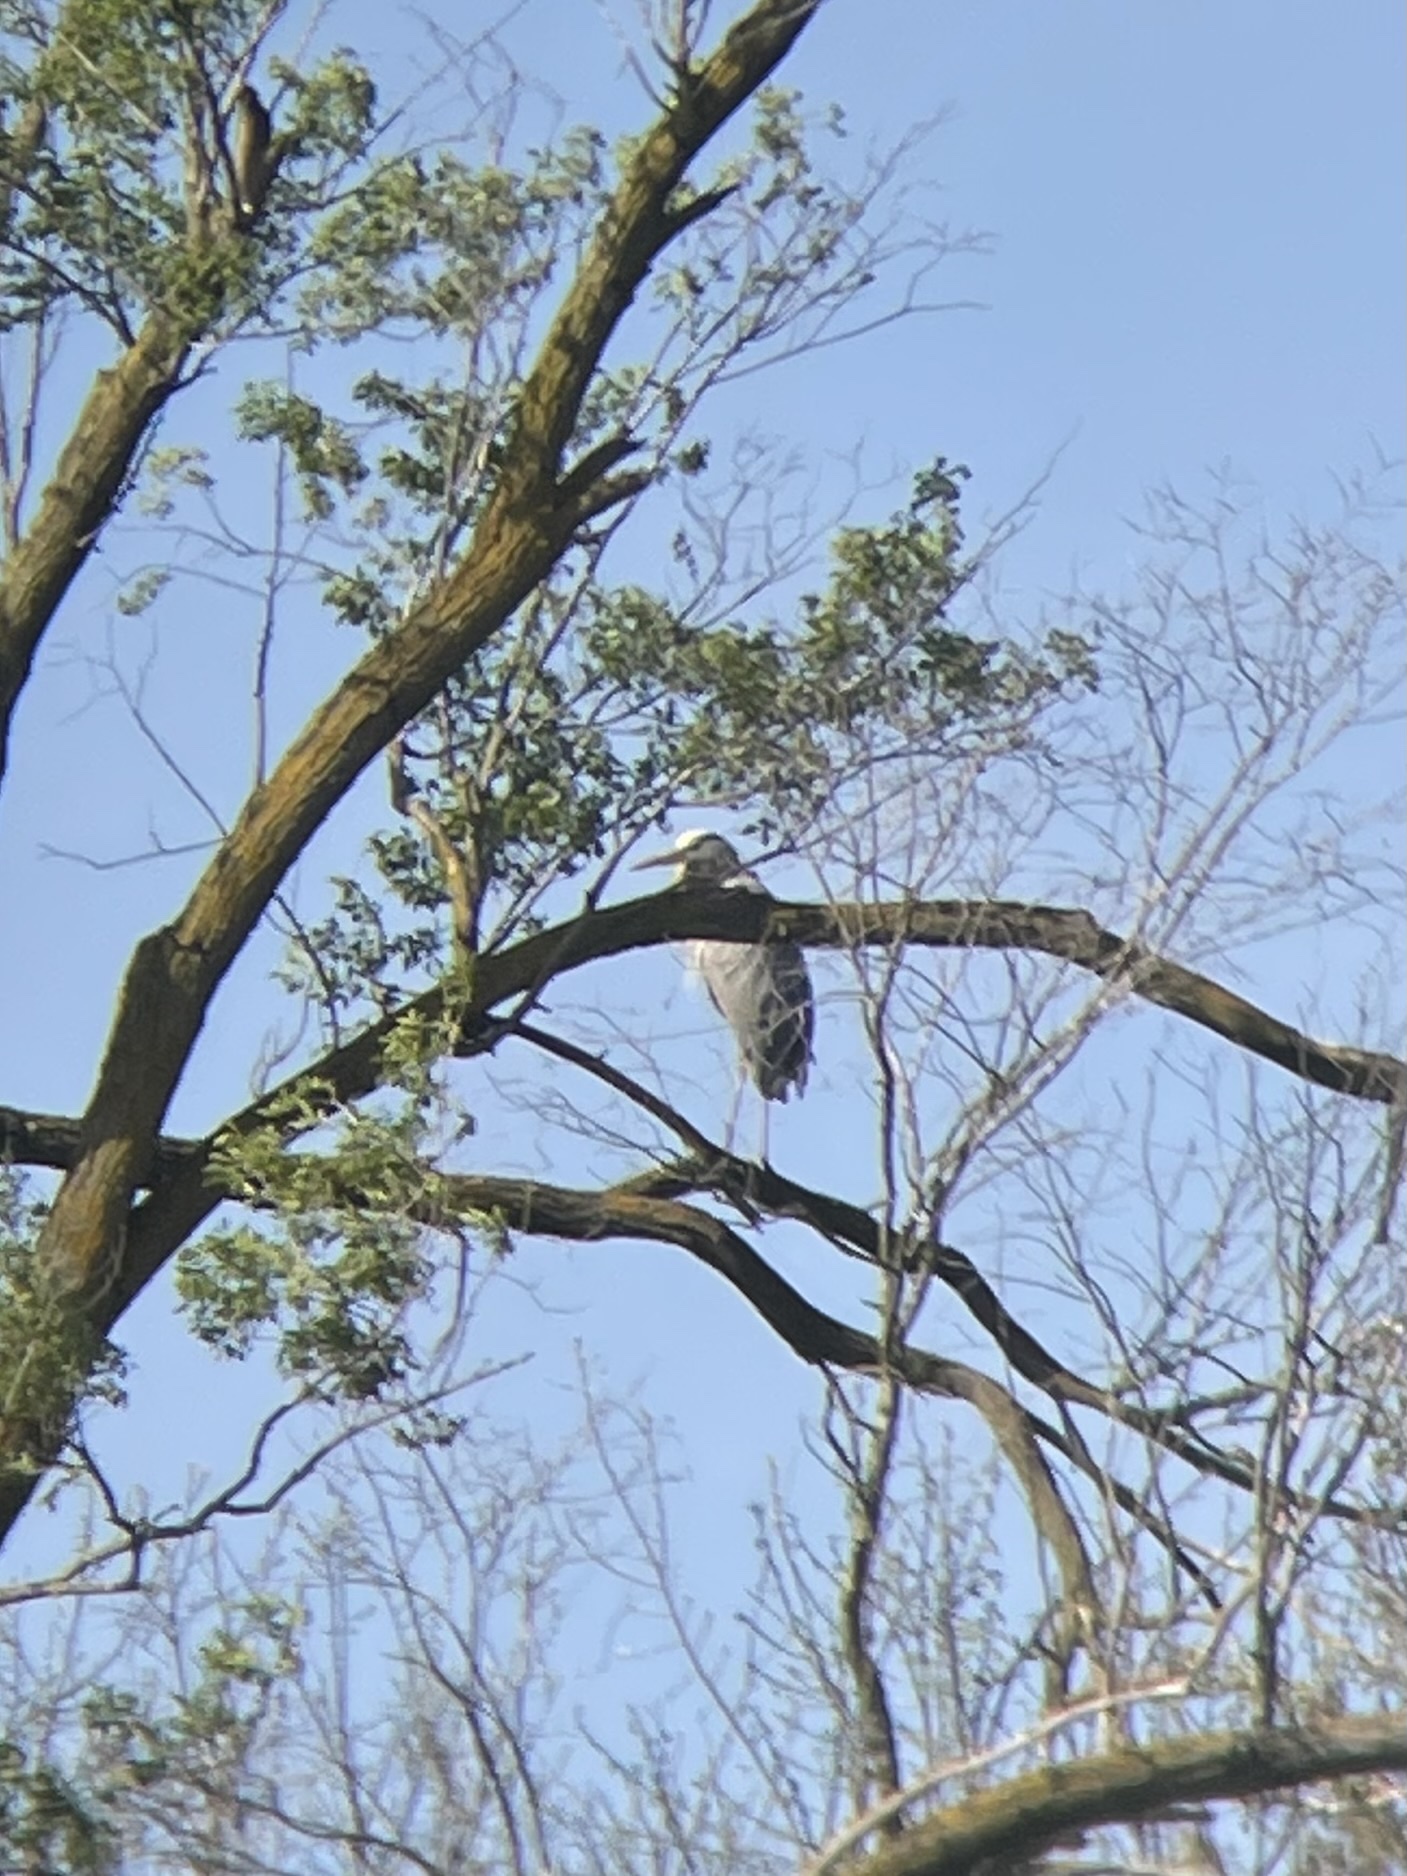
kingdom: Animalia
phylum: Chordata
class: Aves
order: Pelecaniformes
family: Ardeidae
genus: Ardea
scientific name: Ardea herodias
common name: Great blue heron
